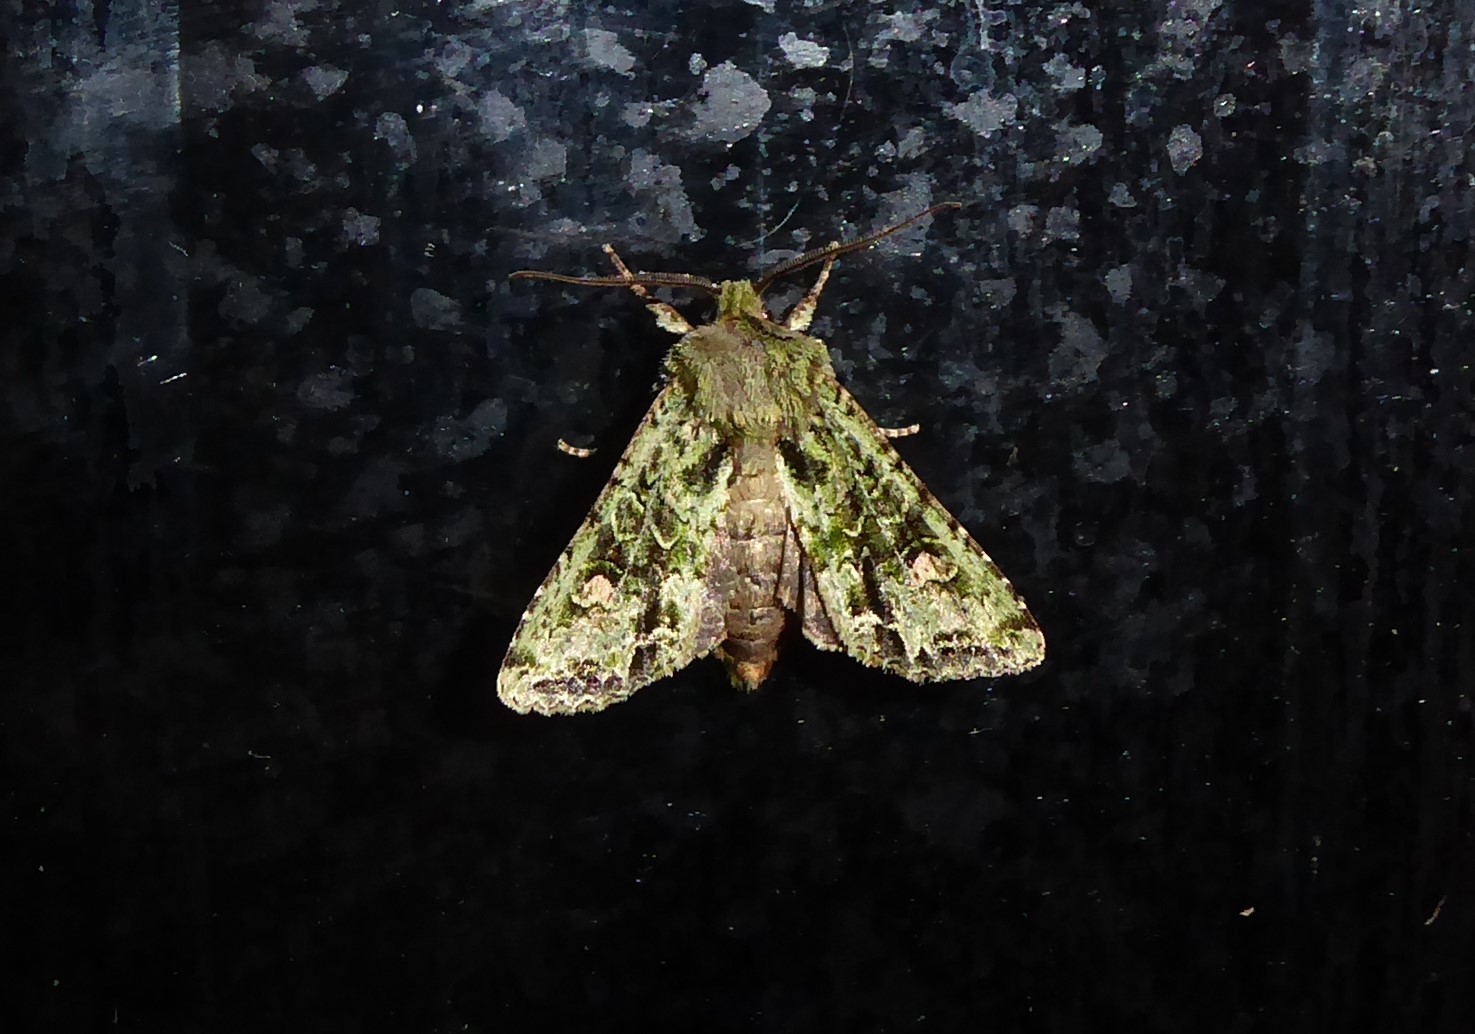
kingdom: Animalia
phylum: Arthropoda
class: Insecta
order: Lepidoptera
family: Noctuidae
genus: Ichneutica
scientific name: Ichneutica
